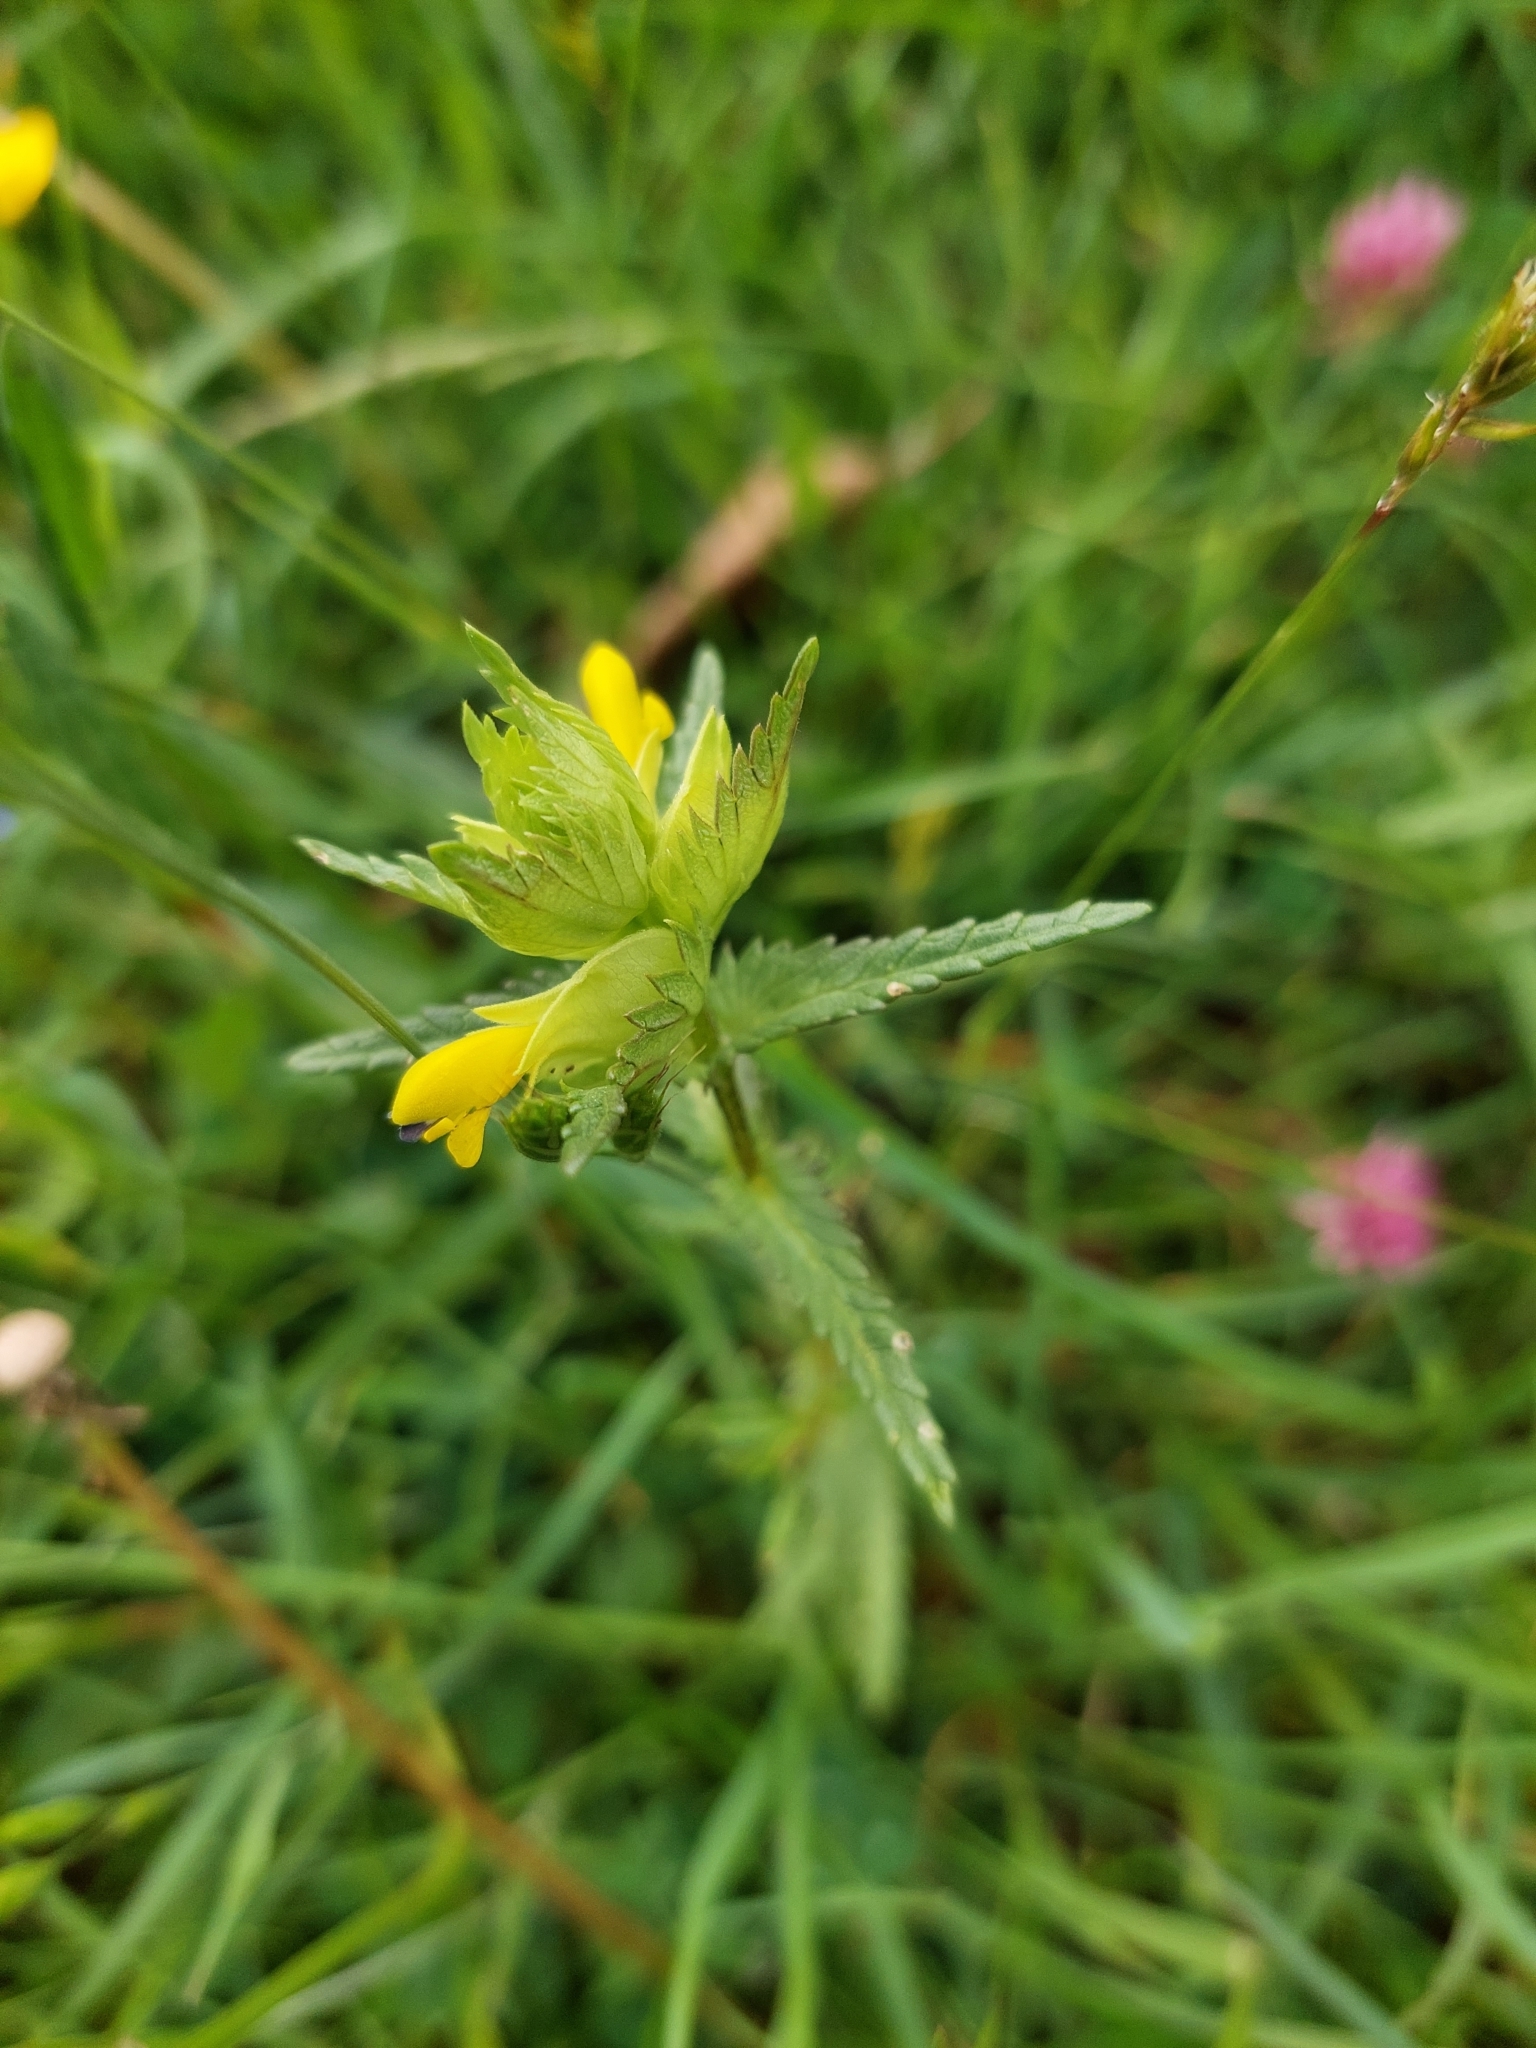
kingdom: Plantae
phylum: Tracheophyta
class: Magnoliopsida
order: Lamiales
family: Orobanchaceae
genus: Rhinanthus
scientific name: Rhinanthus minor
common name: Yellow-rattle
